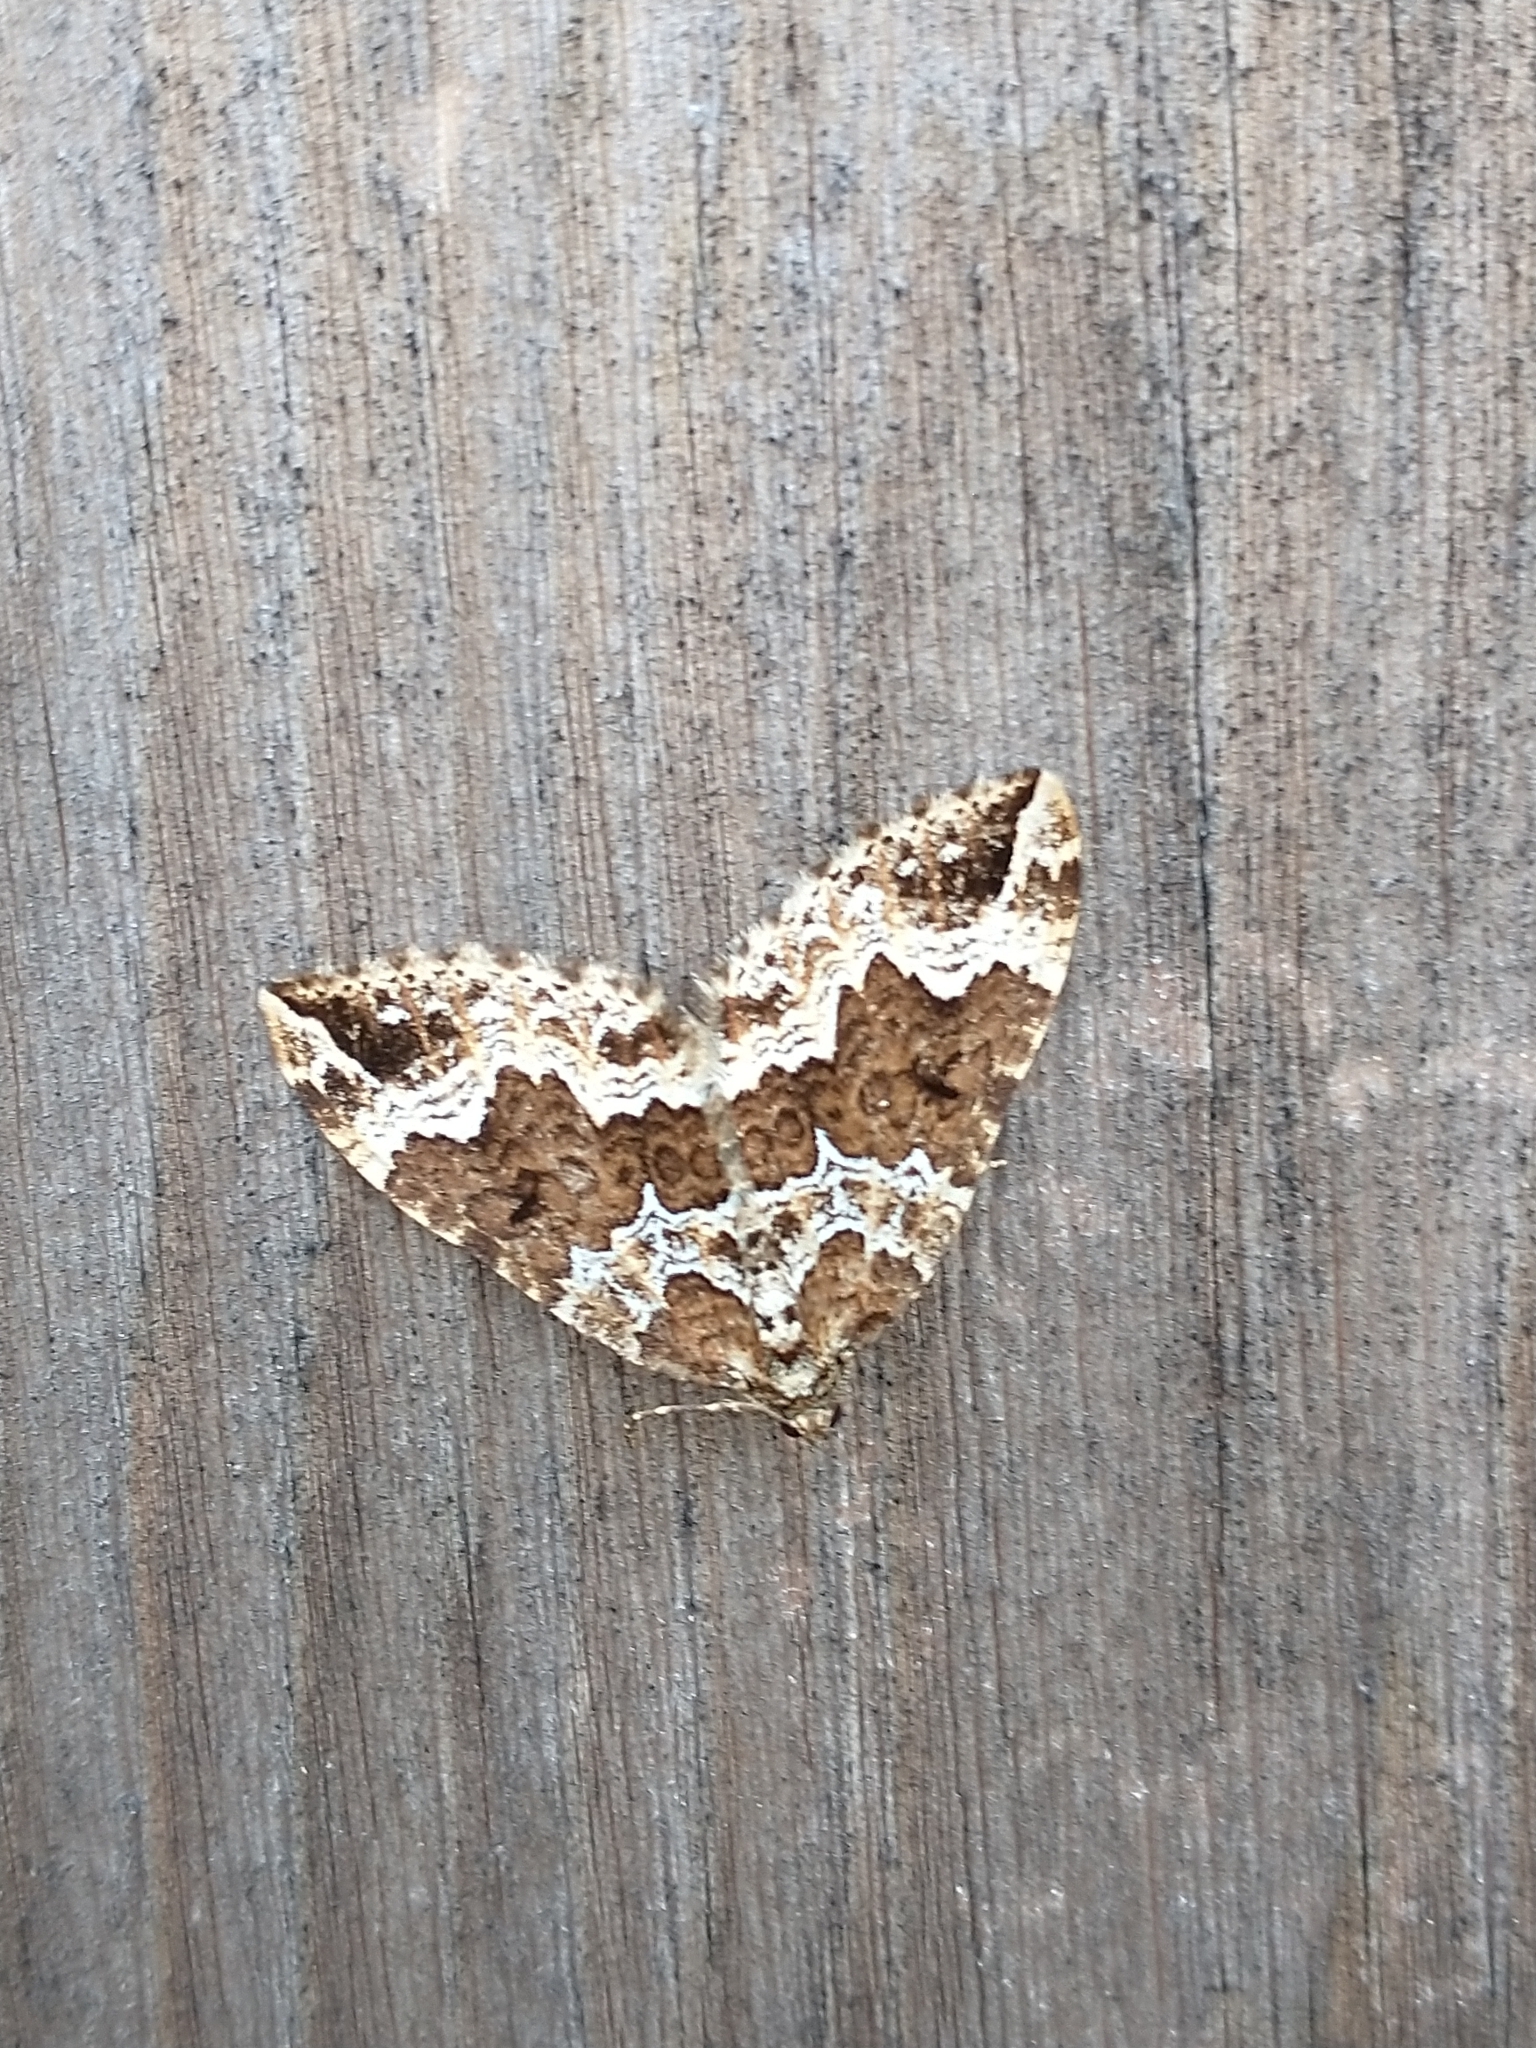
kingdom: Animalia
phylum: Arthropoda
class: Insecta
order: Lepidoptera
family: Geometridae
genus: Lampropteryx
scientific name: Lampropteryx suffumata
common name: Water carpet
